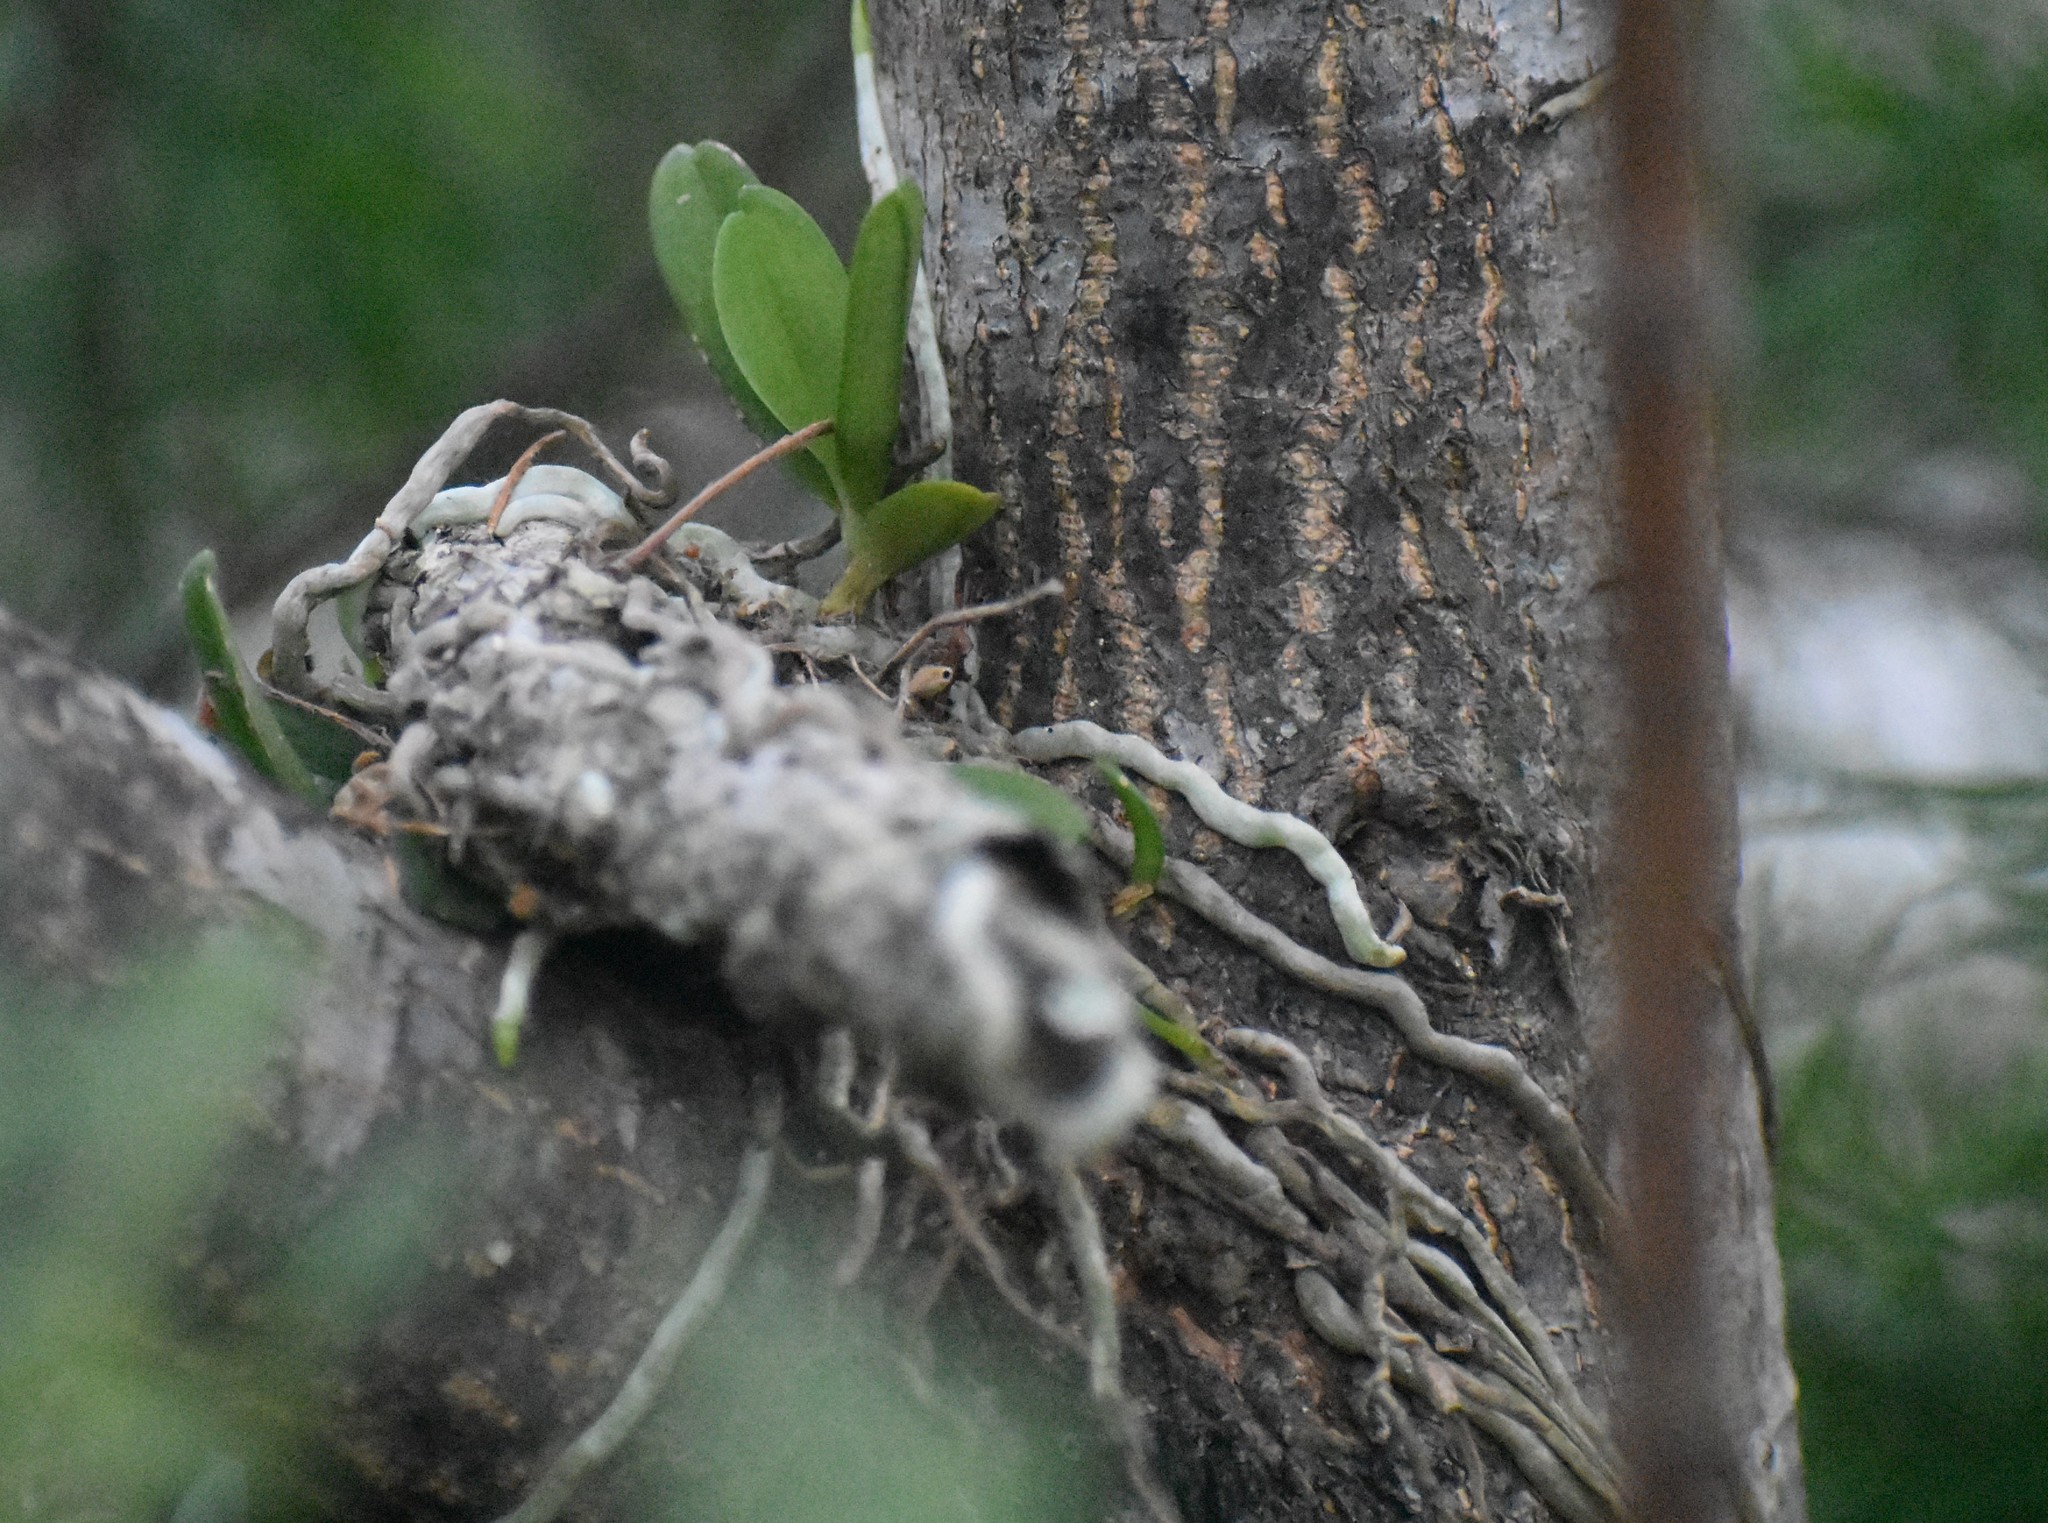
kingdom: Plantae
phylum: Tracheophyta
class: Liliopsida
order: Asparagales
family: Orchidaceae
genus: Mystacidium
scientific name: Mystacidium capense
